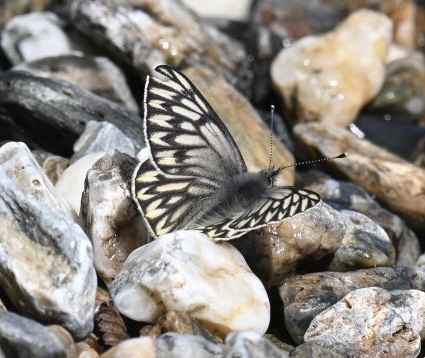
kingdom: Animalia
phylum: Arthropoda
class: Insecta
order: Lepidoptera
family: Pieridae
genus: Tatochila
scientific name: Tatochila theodice
